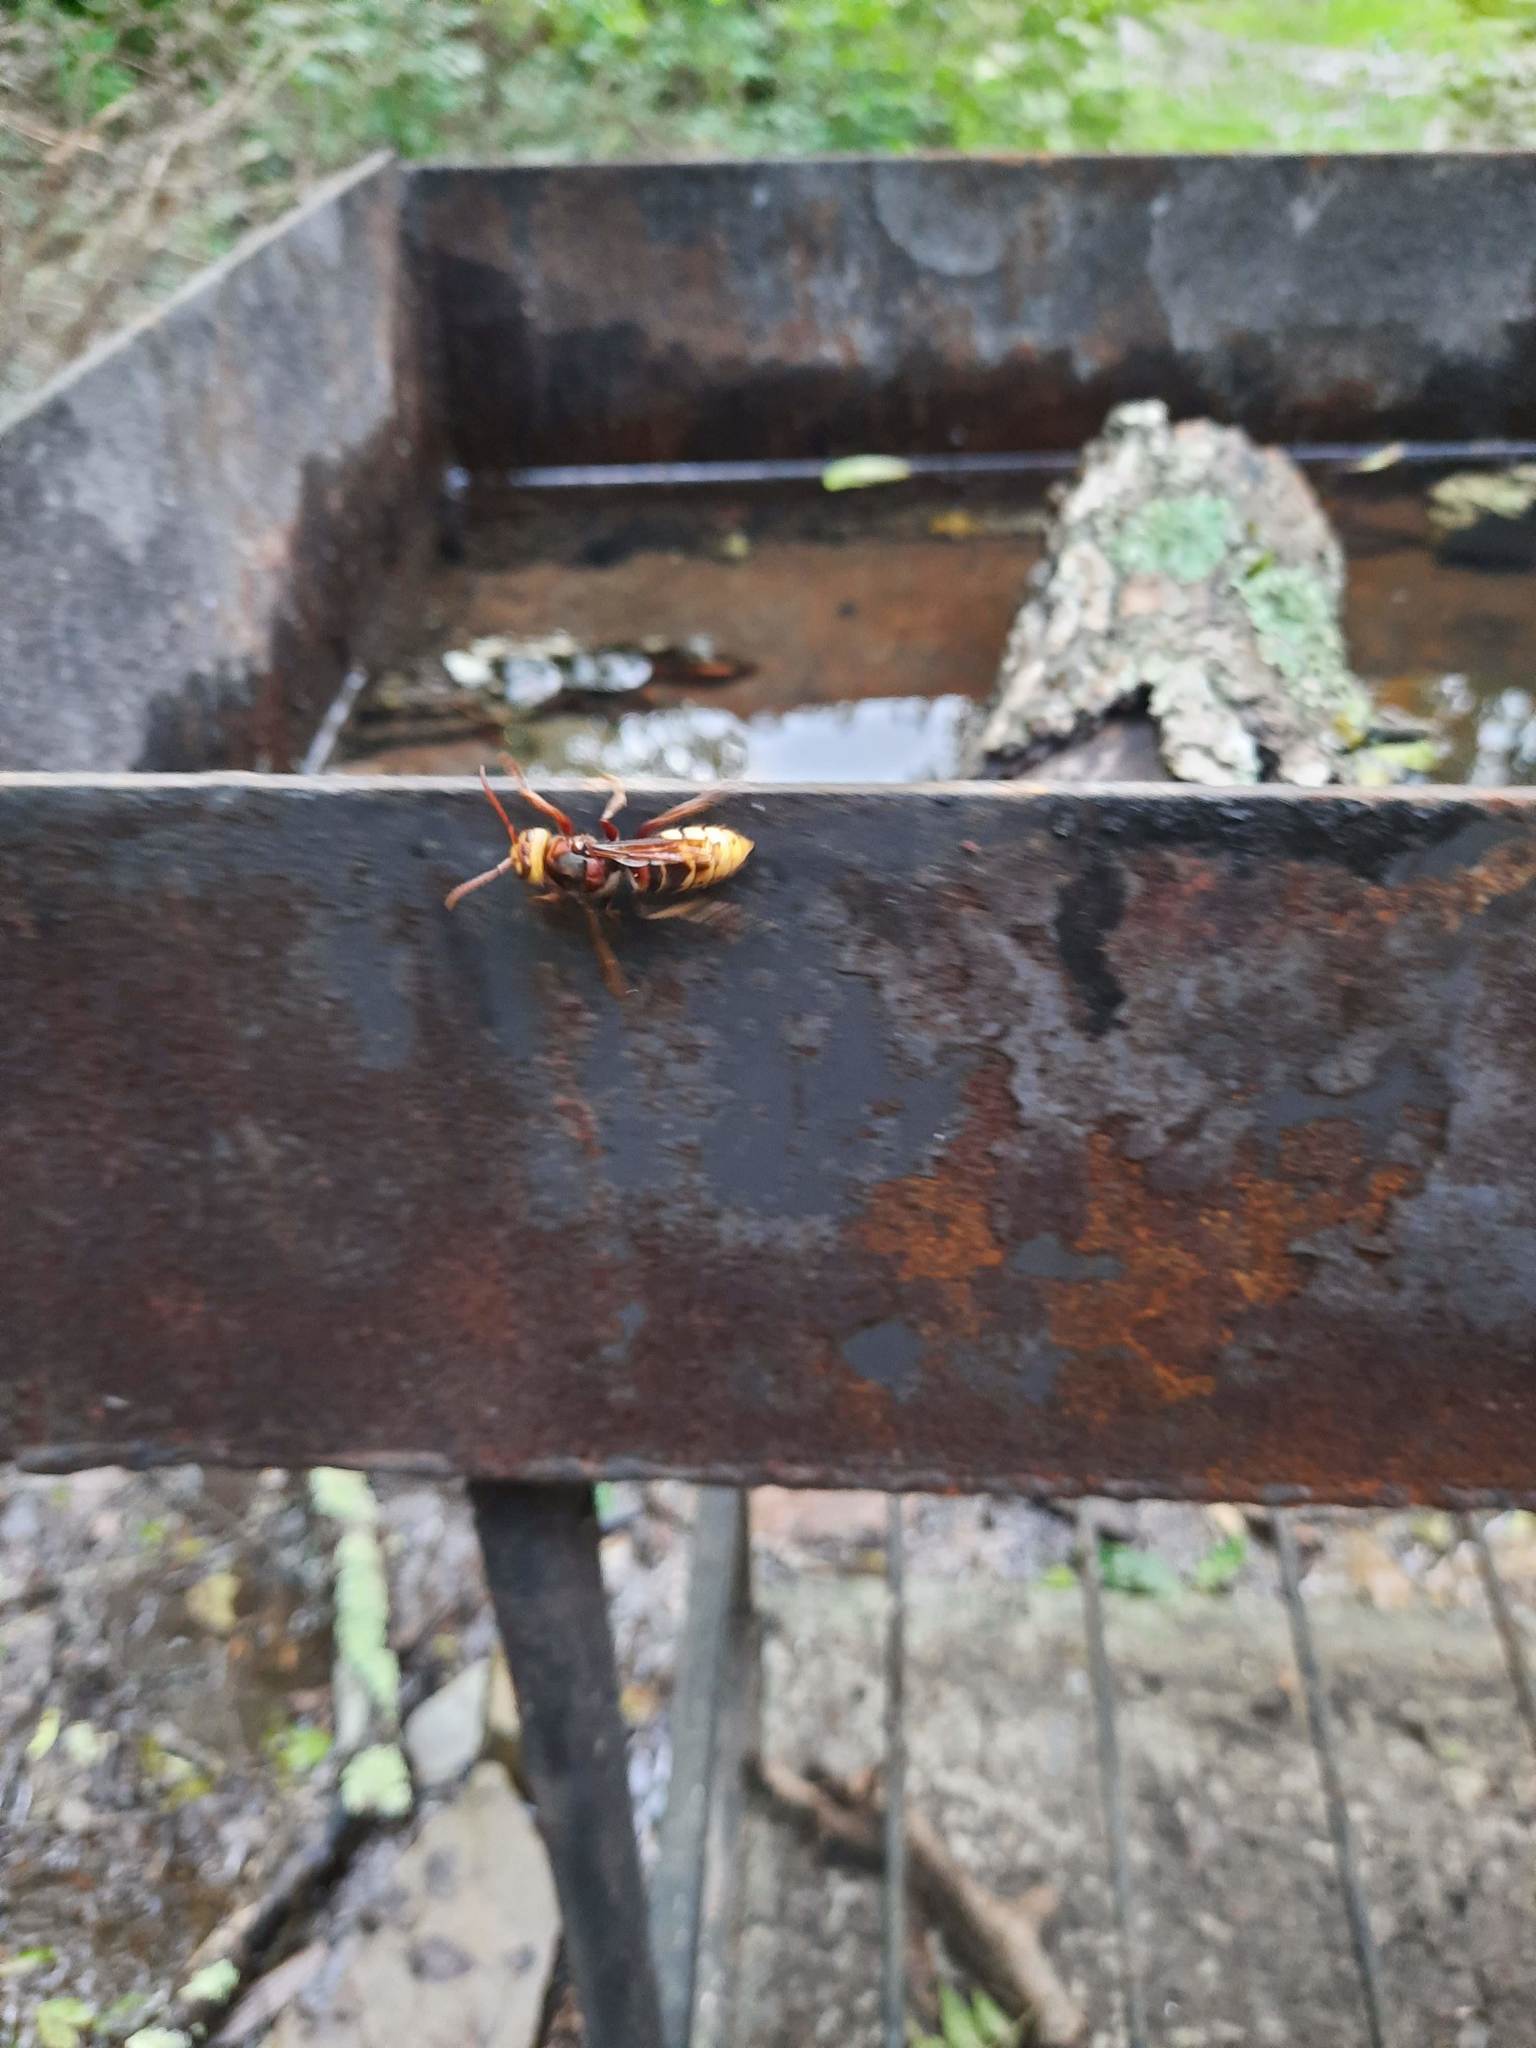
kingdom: Animalia
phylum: Arthropoda
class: Insecta
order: Hymenoptera
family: Vespidae
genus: Vespa
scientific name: Vespa crabro
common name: Hornet
